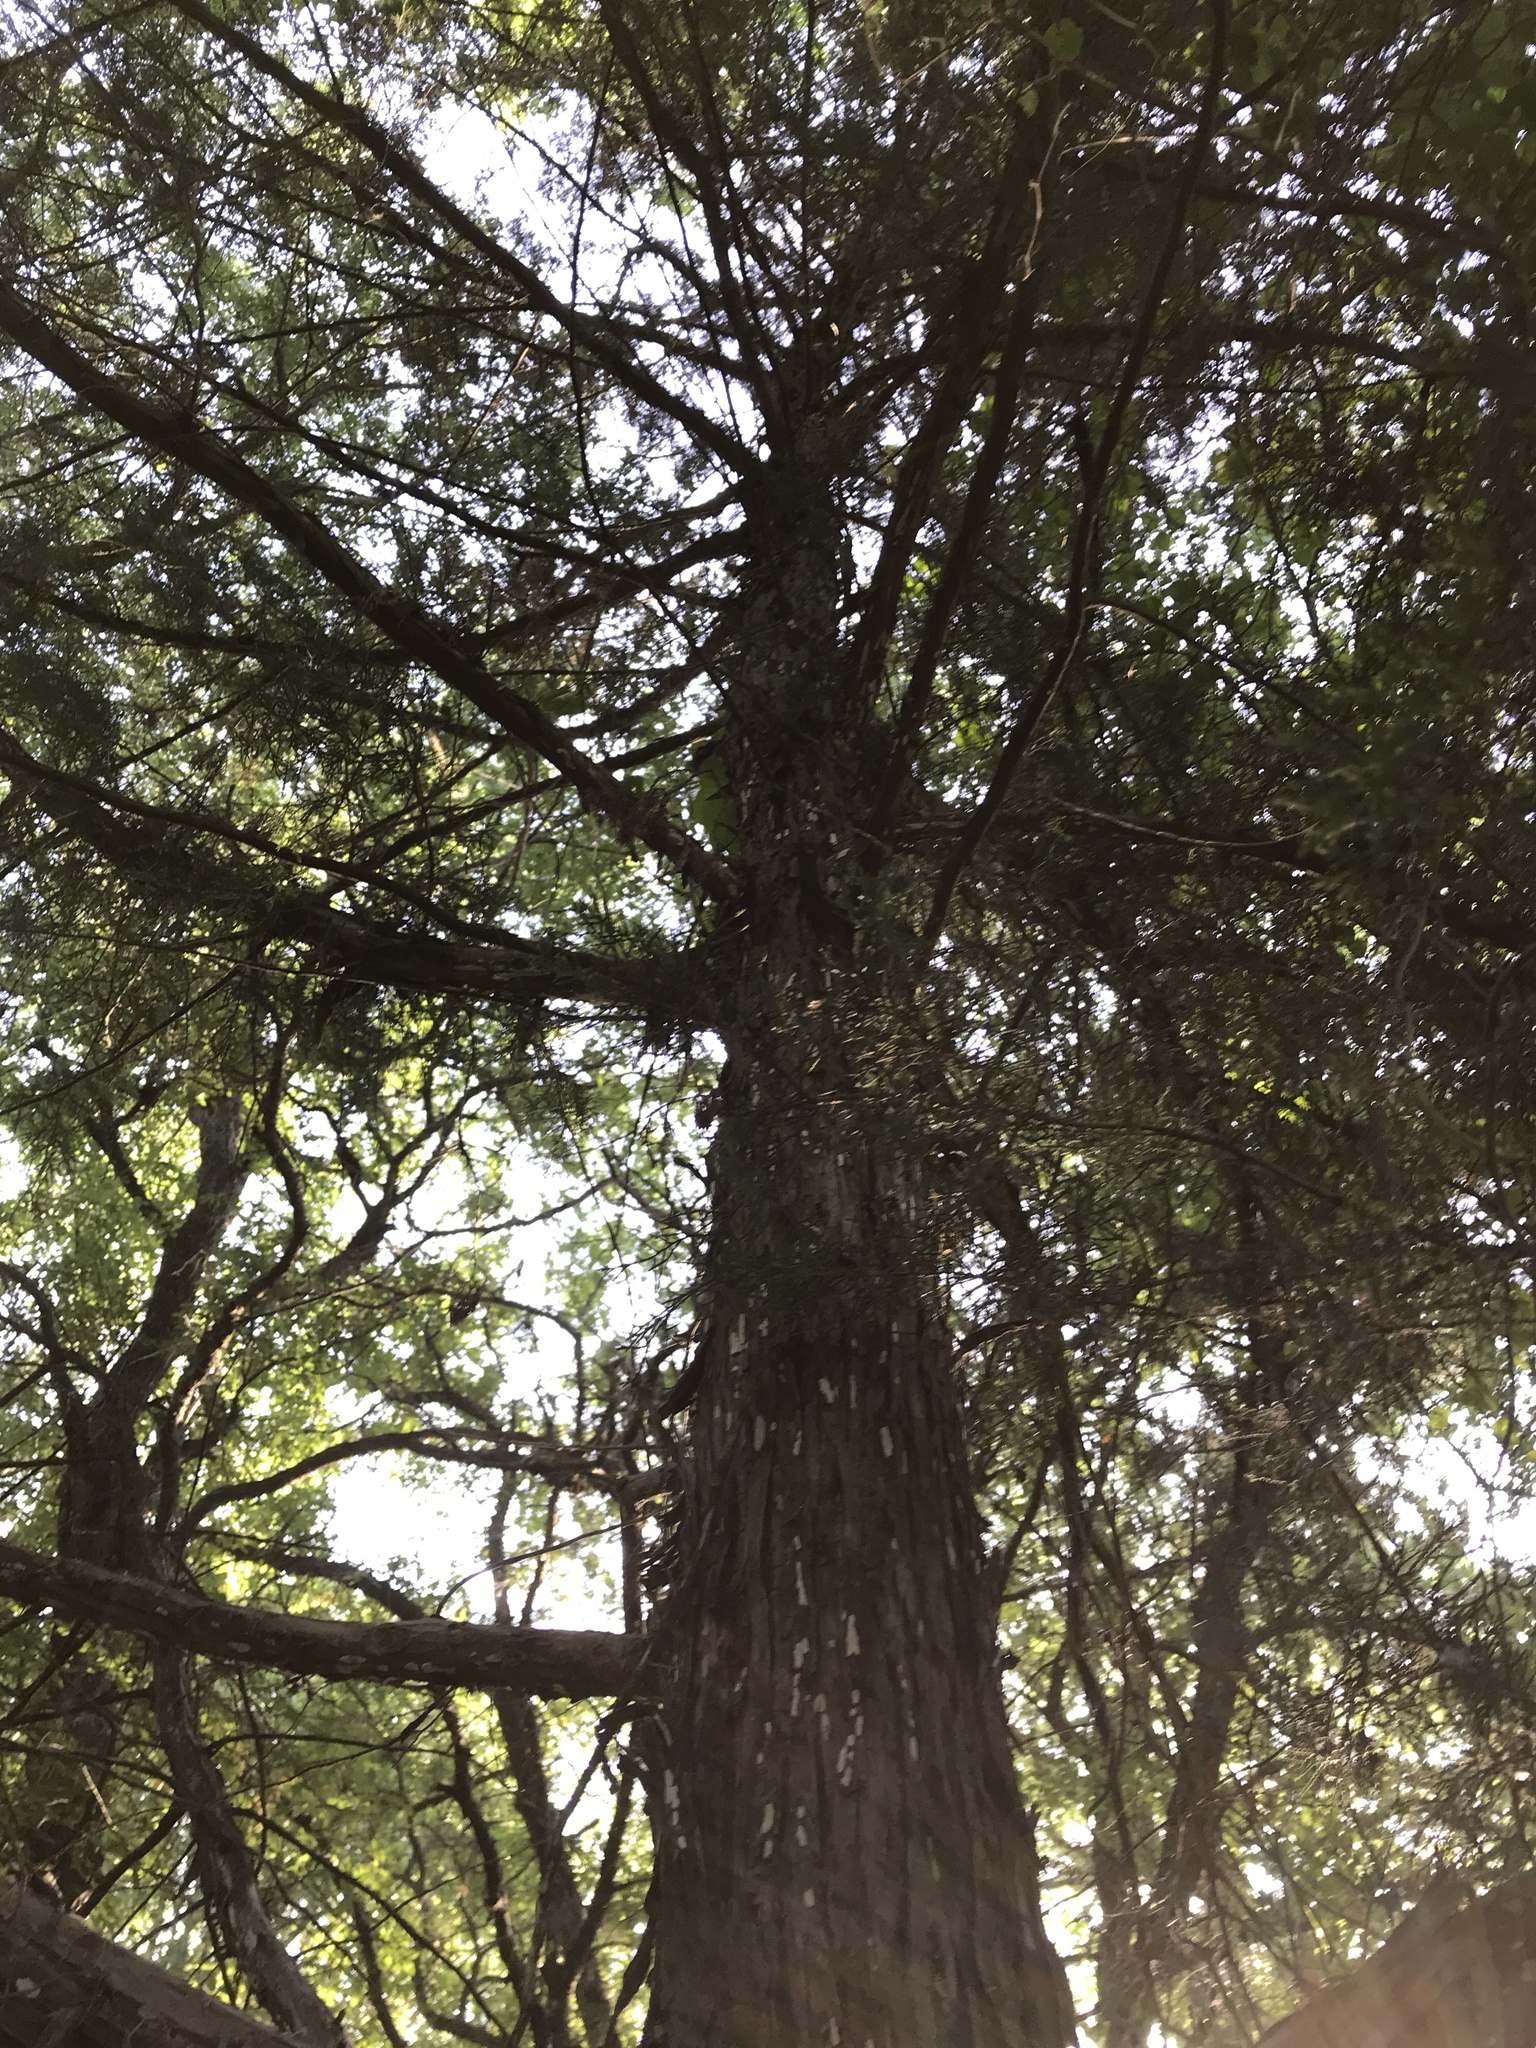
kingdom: Plantae
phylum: Tracheophyta
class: Pinopsida
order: Pinales
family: Cupressaceae
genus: Juniperus
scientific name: Juniperus virginiana
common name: Red juniper
